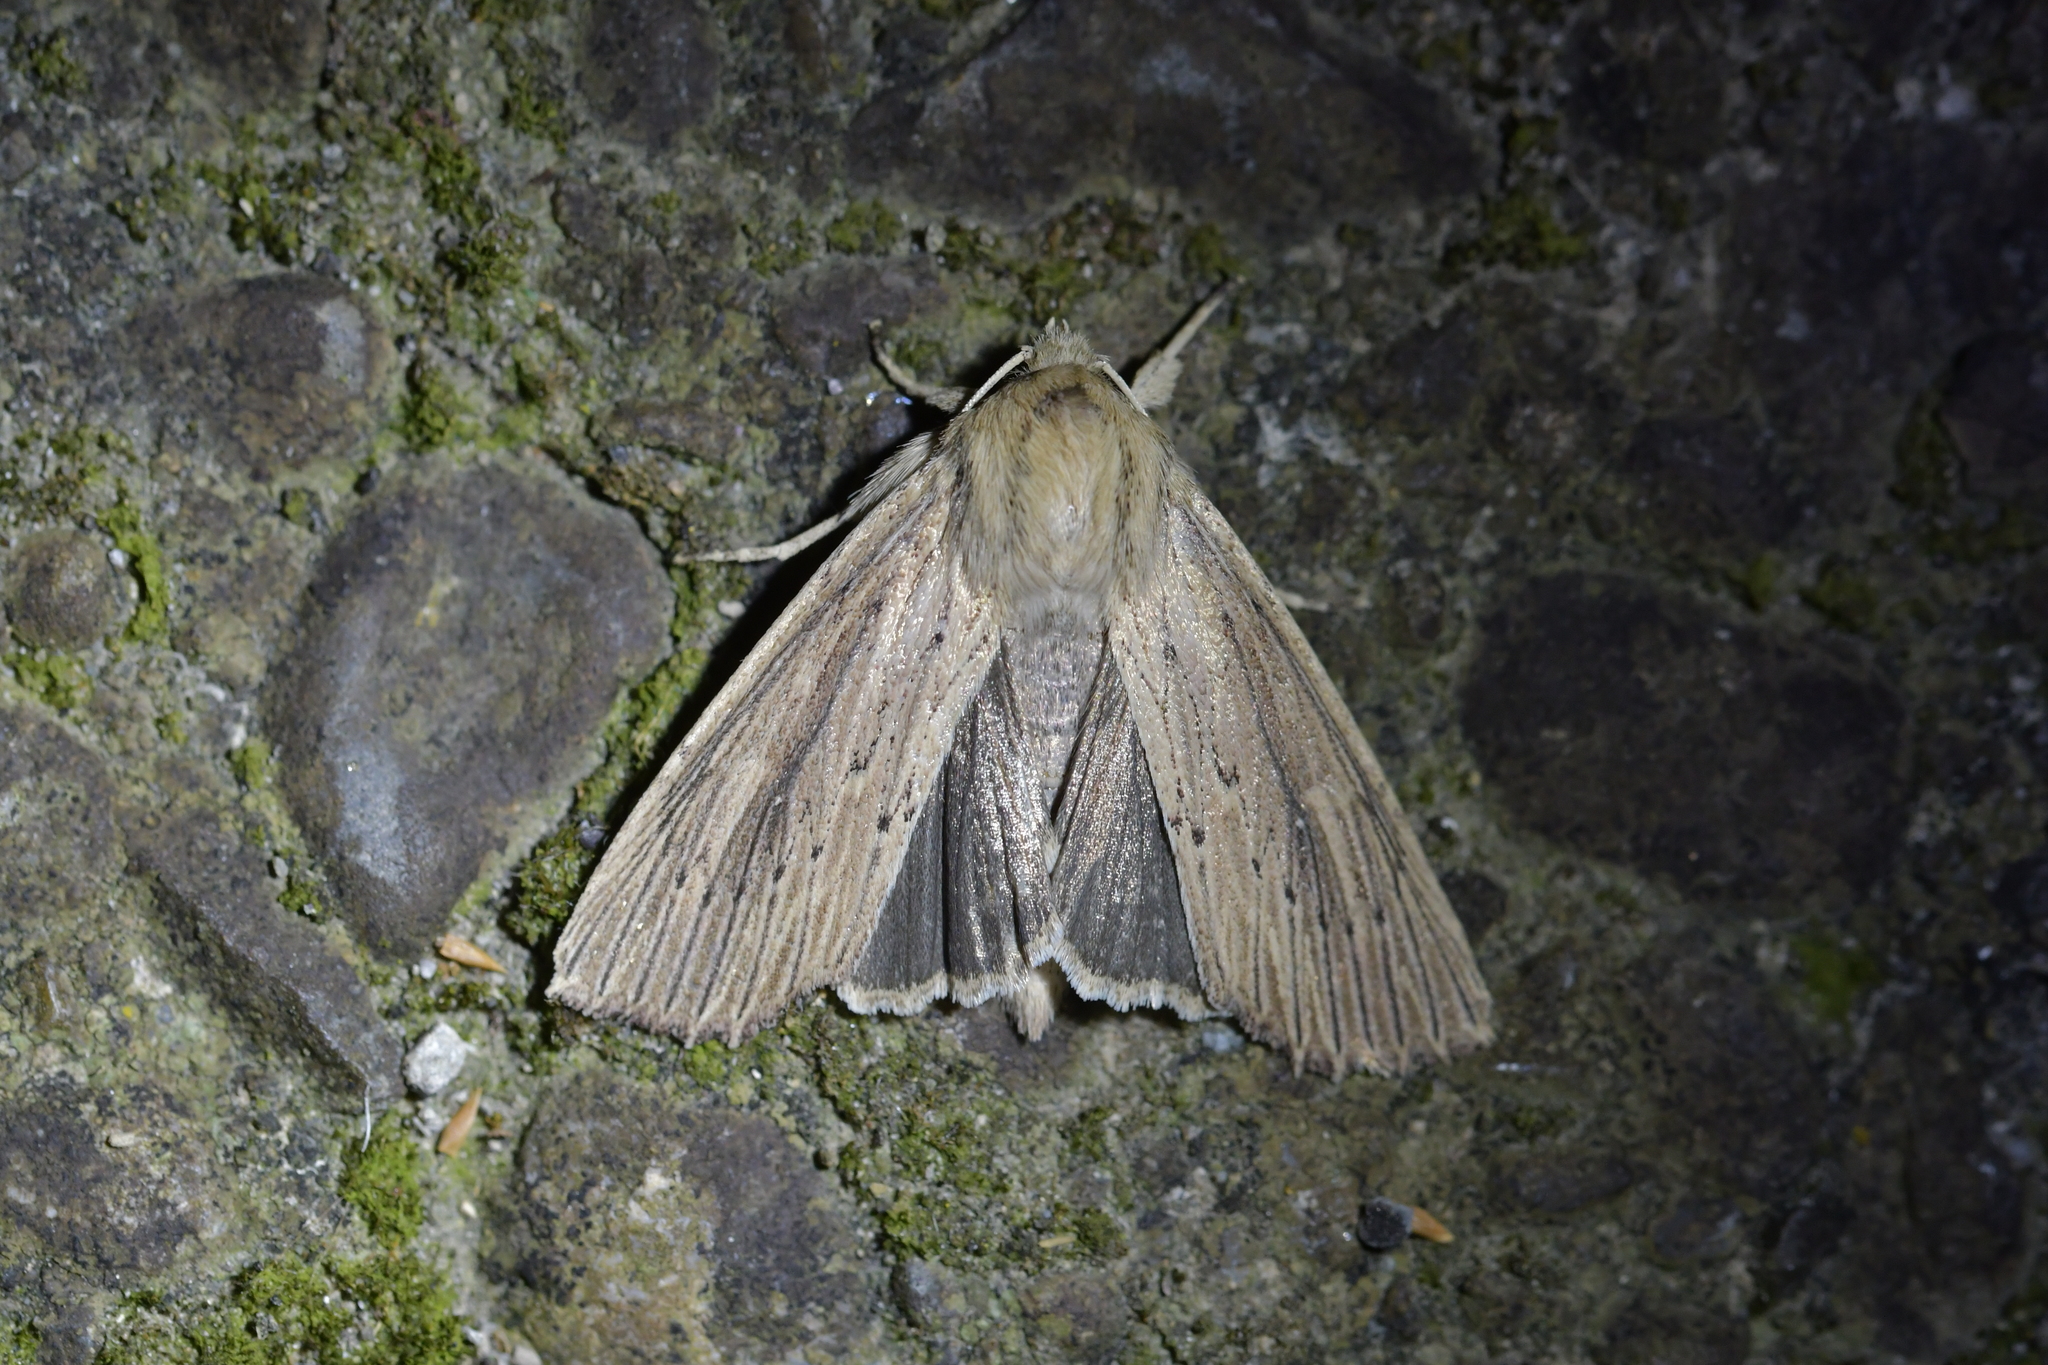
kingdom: Animalia
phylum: Arthropoda
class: Insecta
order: Lepidoptera
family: Noctuidae
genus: Ichneutica
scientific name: Ichneutica arotis
